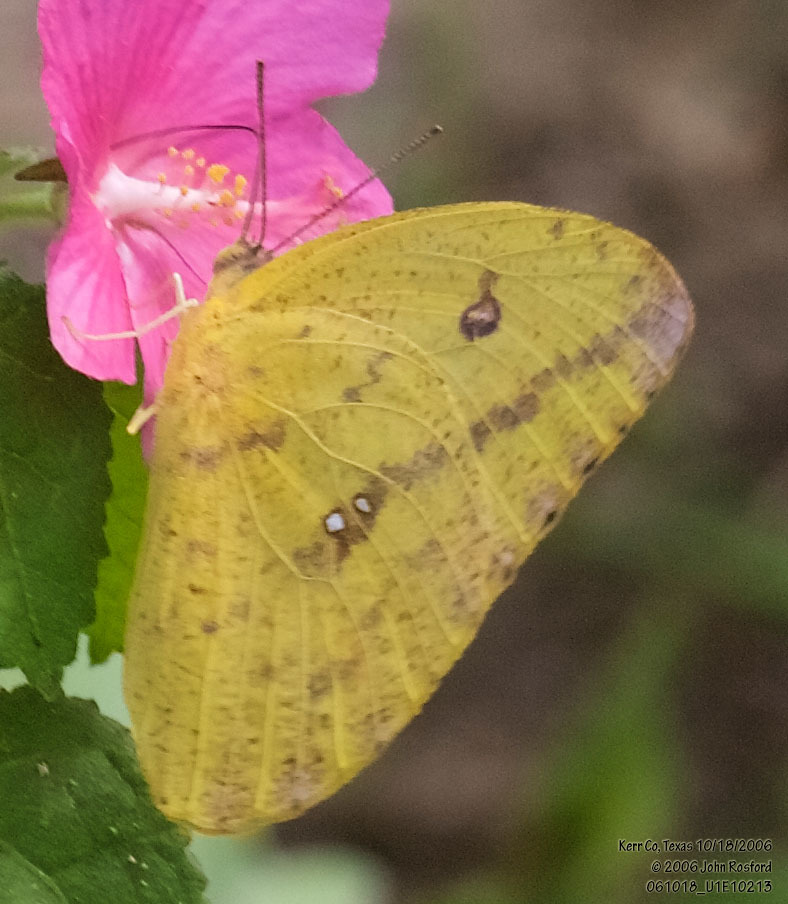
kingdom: Animalia
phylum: Arthropoda
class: Insecta
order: Lepidoptera
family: Pieridae
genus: Phoebis
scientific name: Phoebis agarithe
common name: Large orange sulphur
